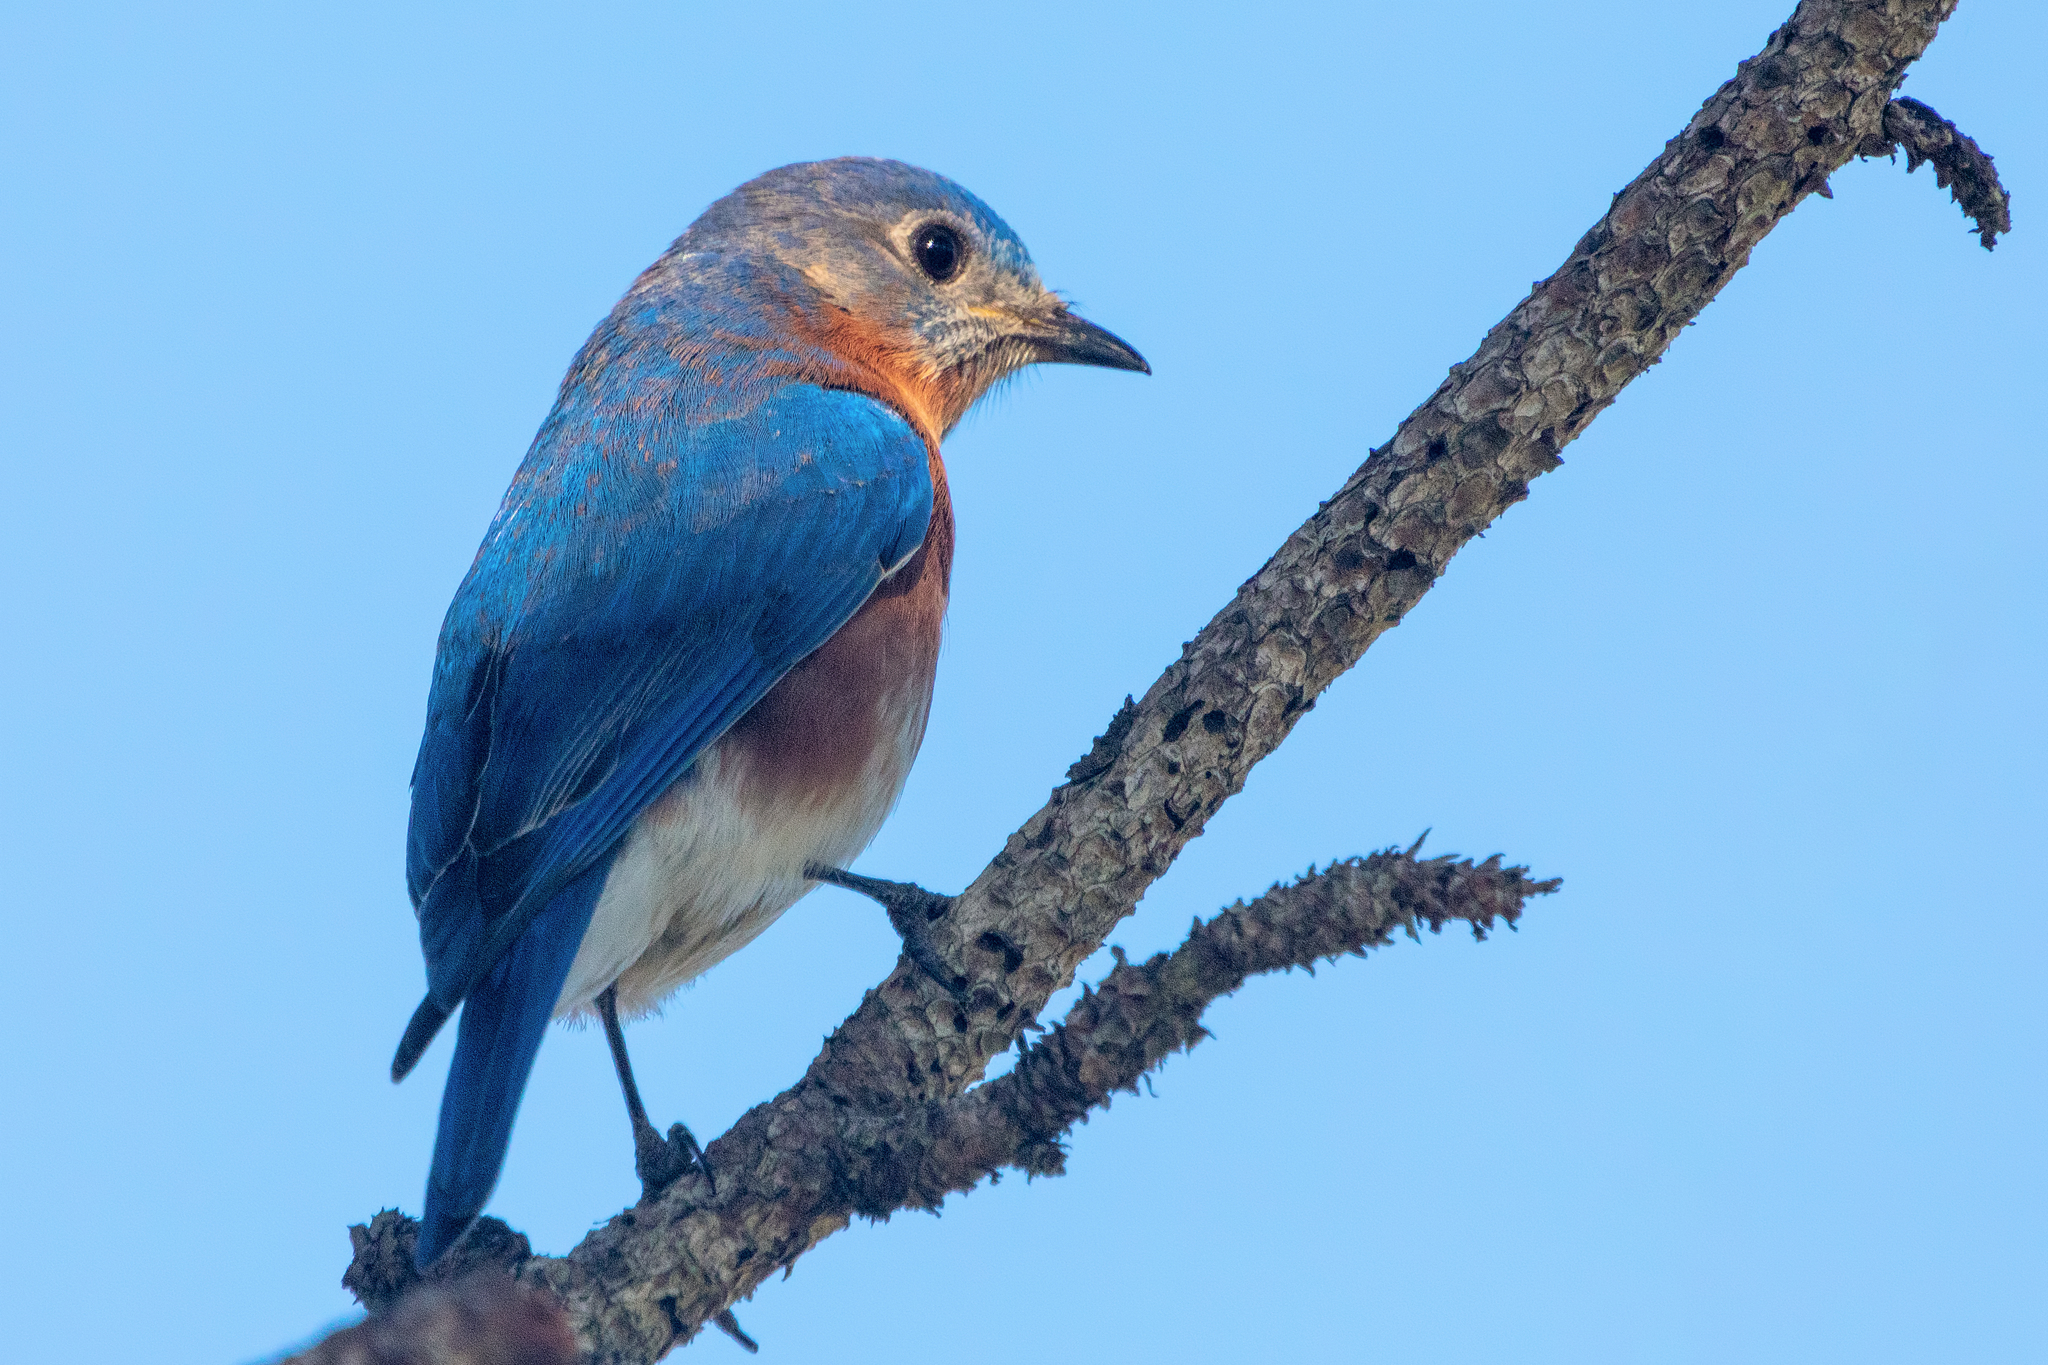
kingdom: Animalia
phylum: Chordata
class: Aves
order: Passeriformes
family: Turdidae
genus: Sialia
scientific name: Sialia sialis
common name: Eastern bluebird
